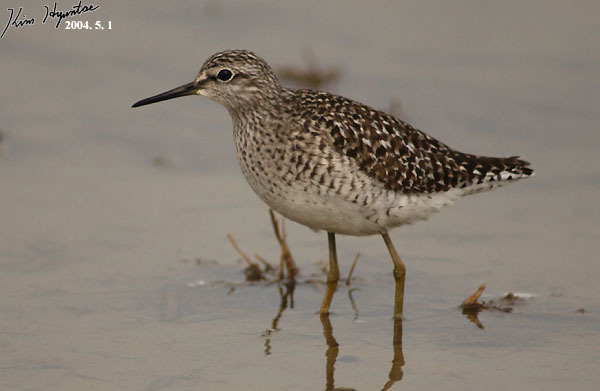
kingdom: Animalia
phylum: Chordata
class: Aves
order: Charadriiformes
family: Scolopacidae
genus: Tringa
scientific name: Tringa glareola
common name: Wood sandpiper
